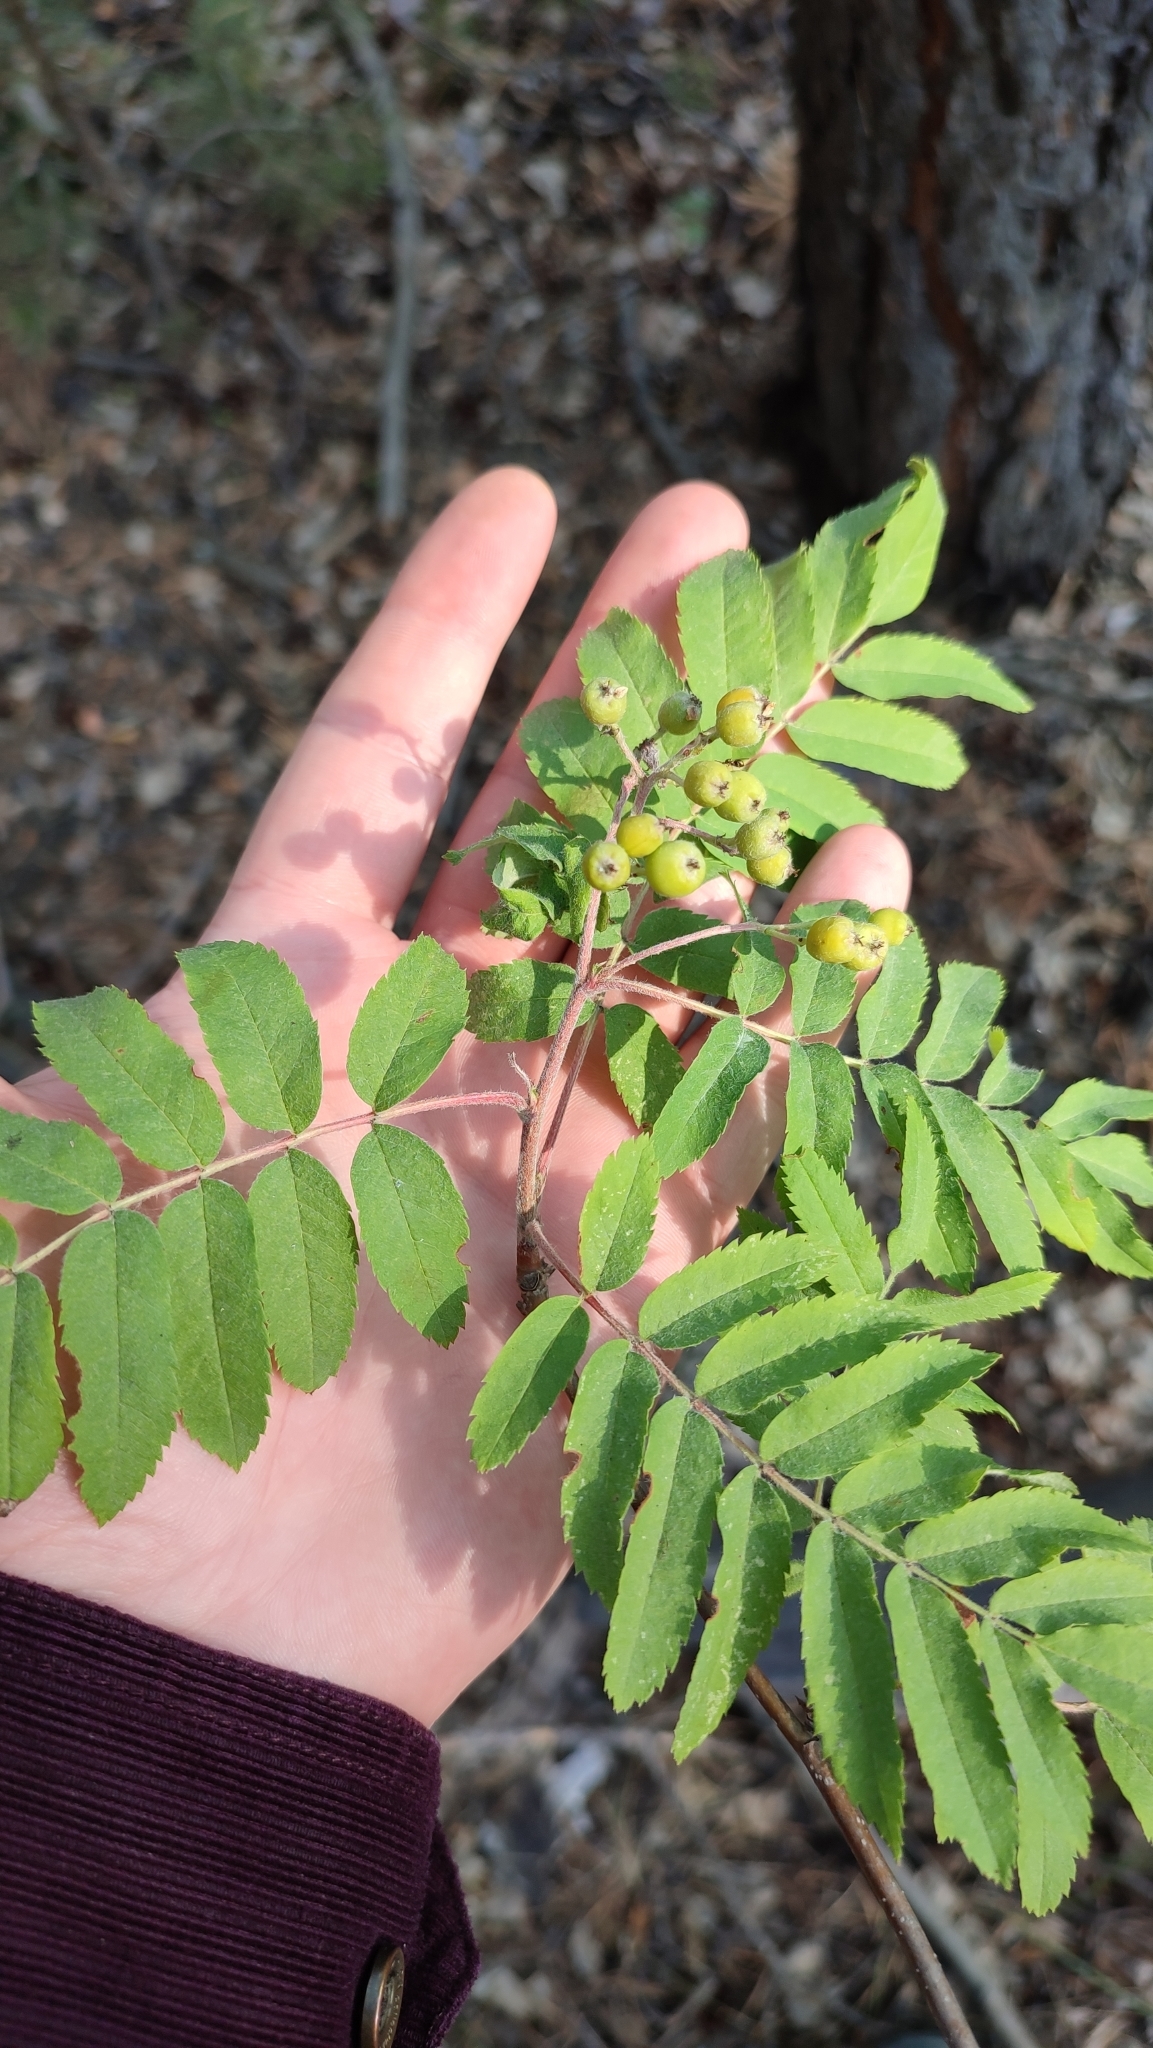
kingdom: Plantae
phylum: Tracheophyta
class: Magnoliopsida
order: Rosales
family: Rosaceae
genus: Sorbus
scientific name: Sorbus aucuparia
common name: Rowan
